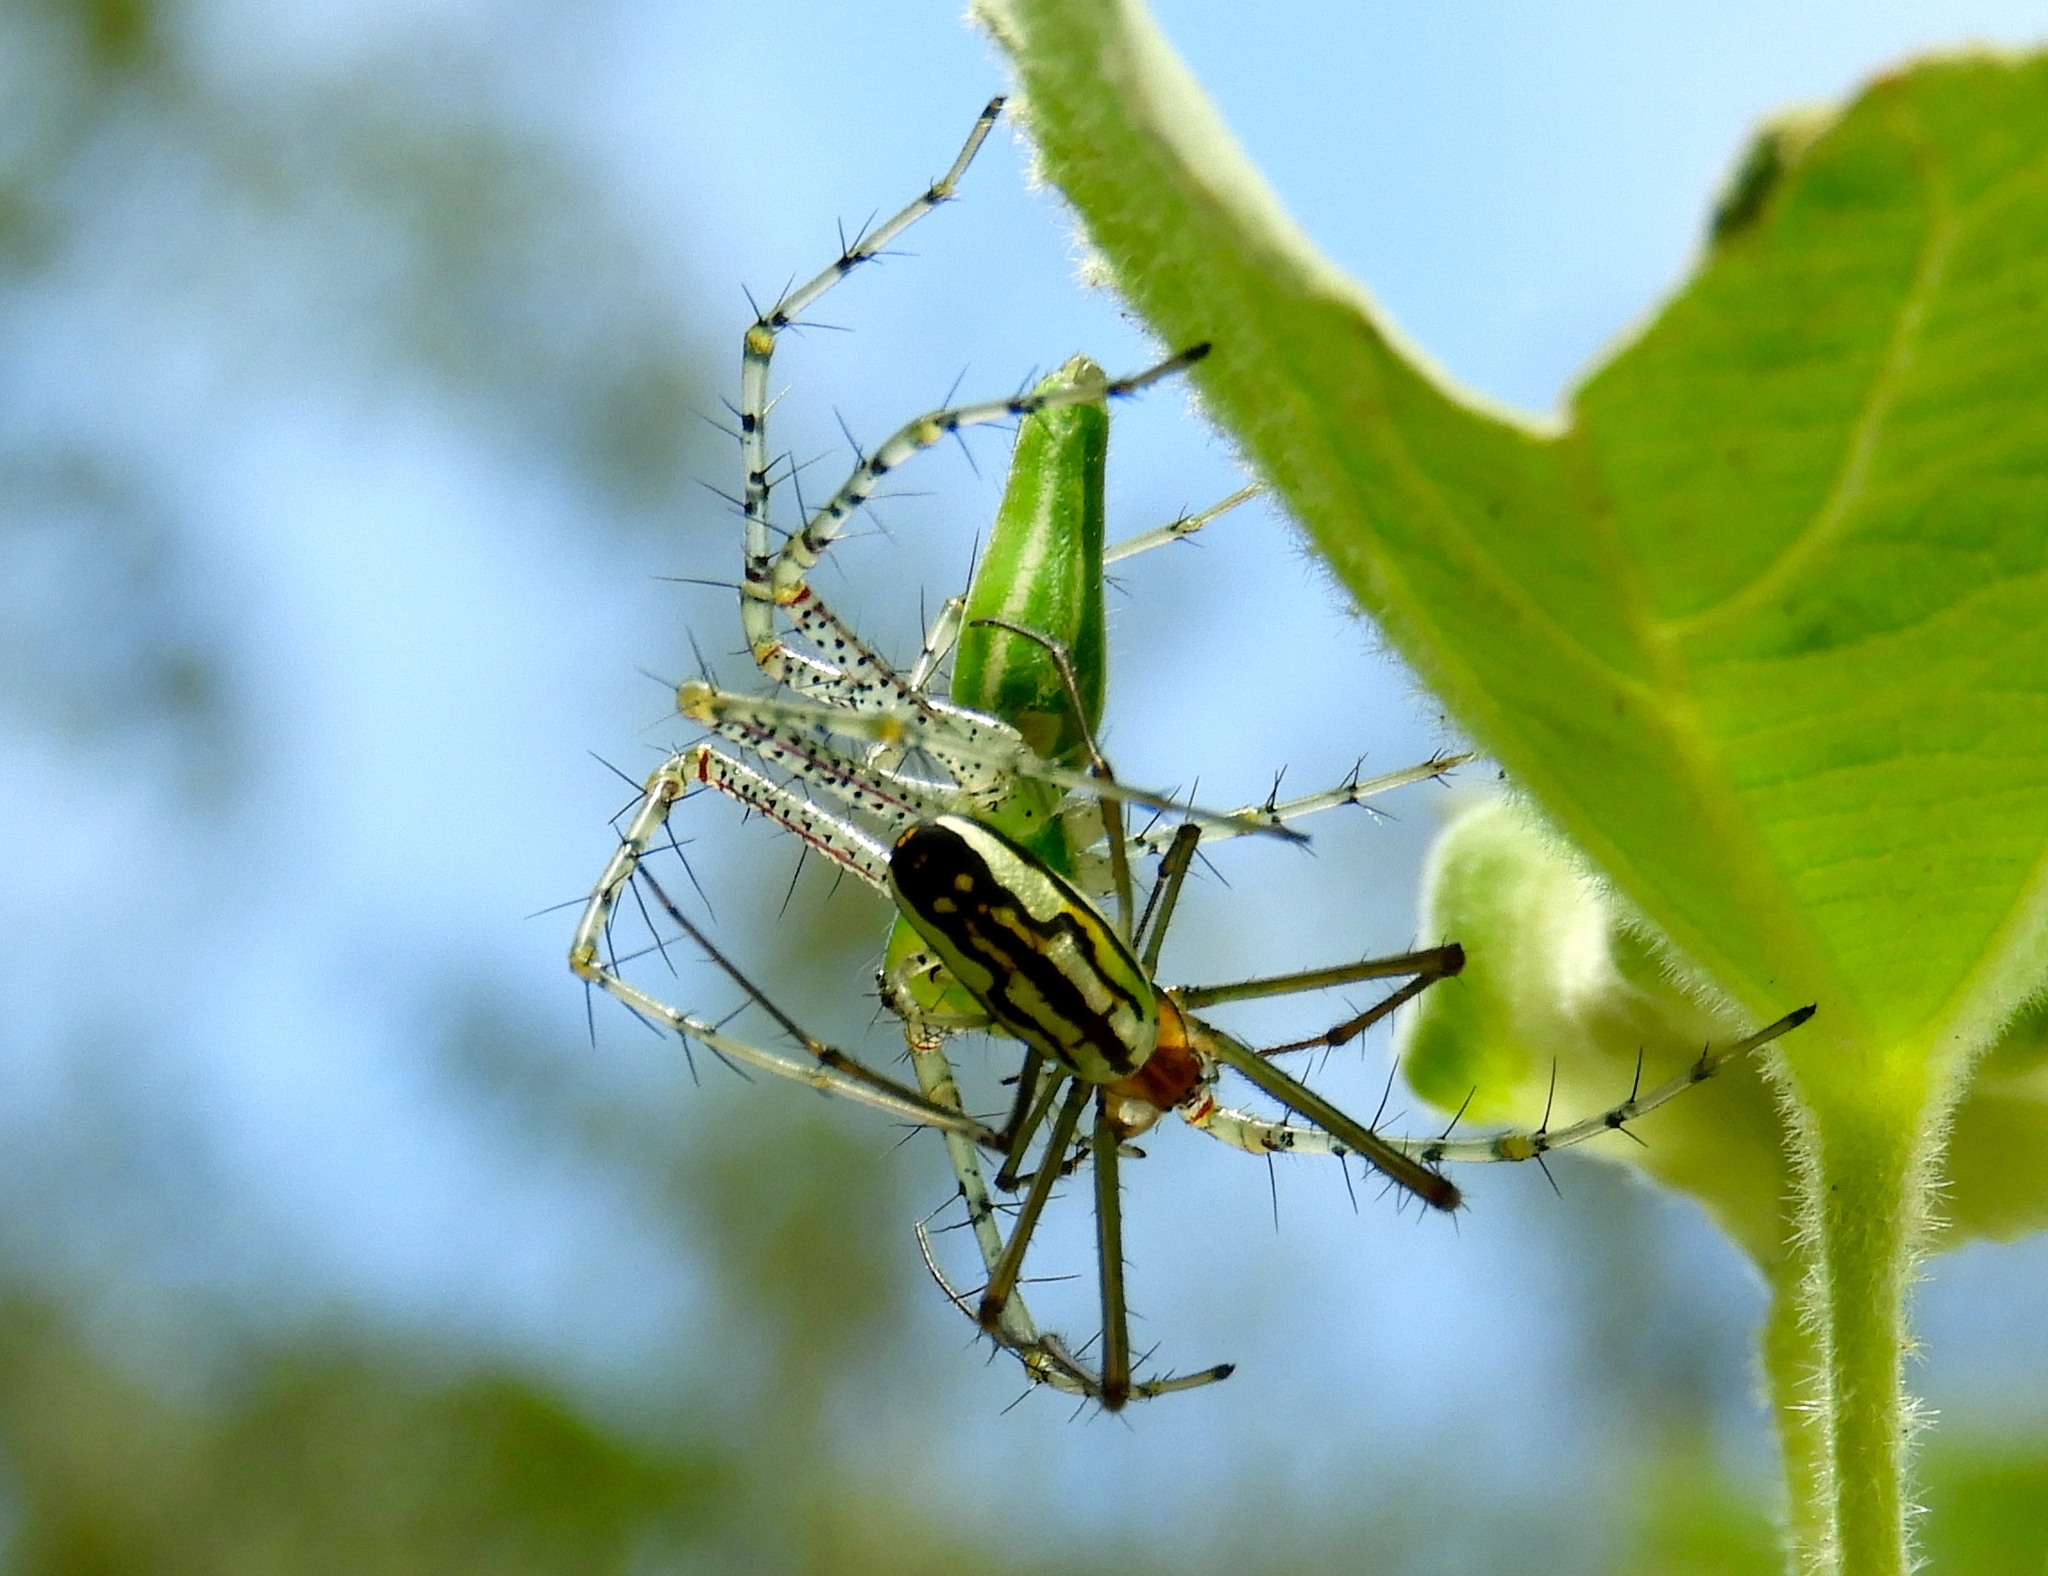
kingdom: Animalia
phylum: Arthropoda
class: Arachnida
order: Araneae
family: Tetragnathidae
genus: Leucauge
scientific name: Leucauge
